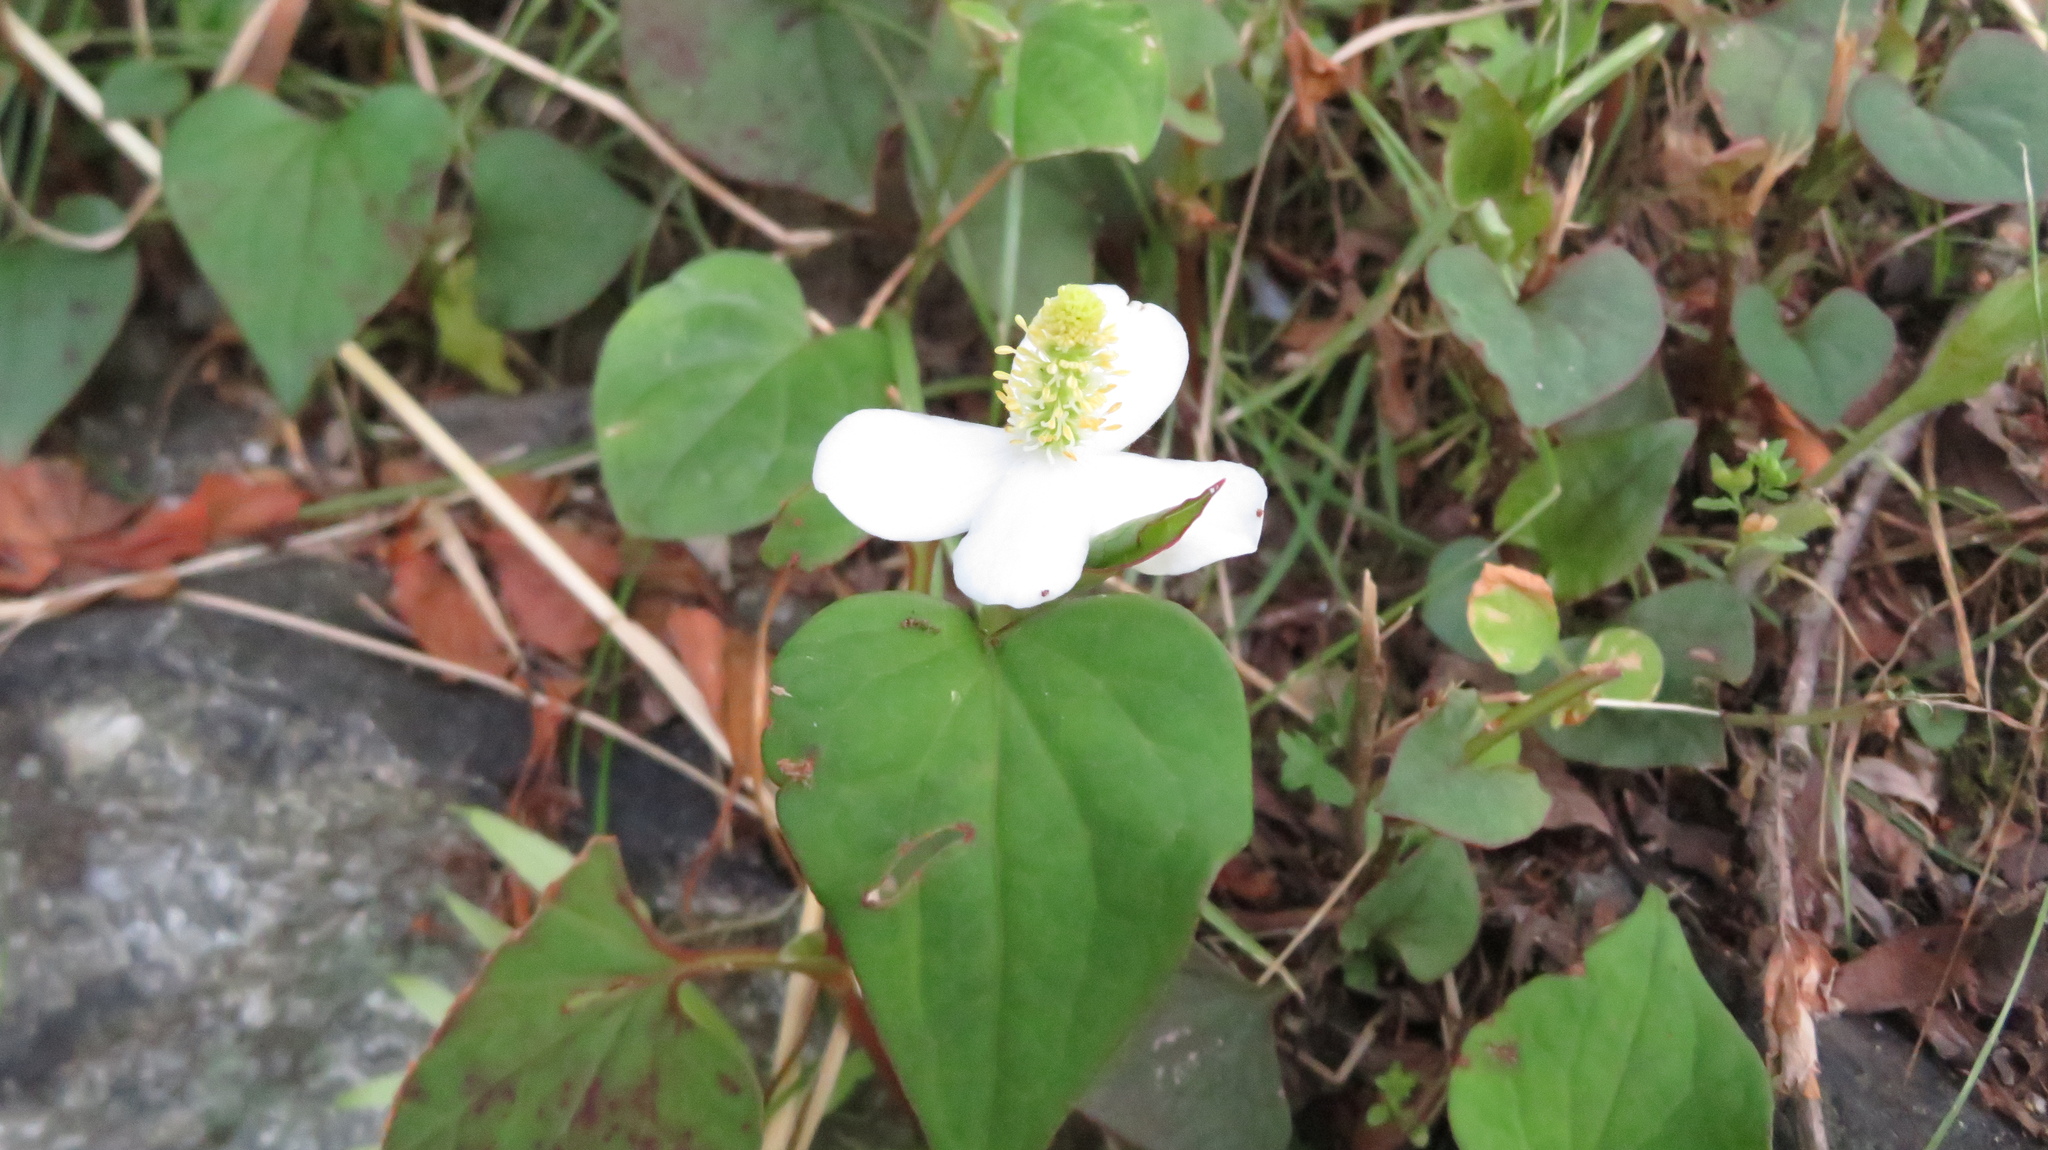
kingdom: Plantae
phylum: Tracheophyta
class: Magnoliopsida
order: Piperales
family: Saururaceae
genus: Houttuynia
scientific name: Houttuynia cordata
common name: Chameleon
